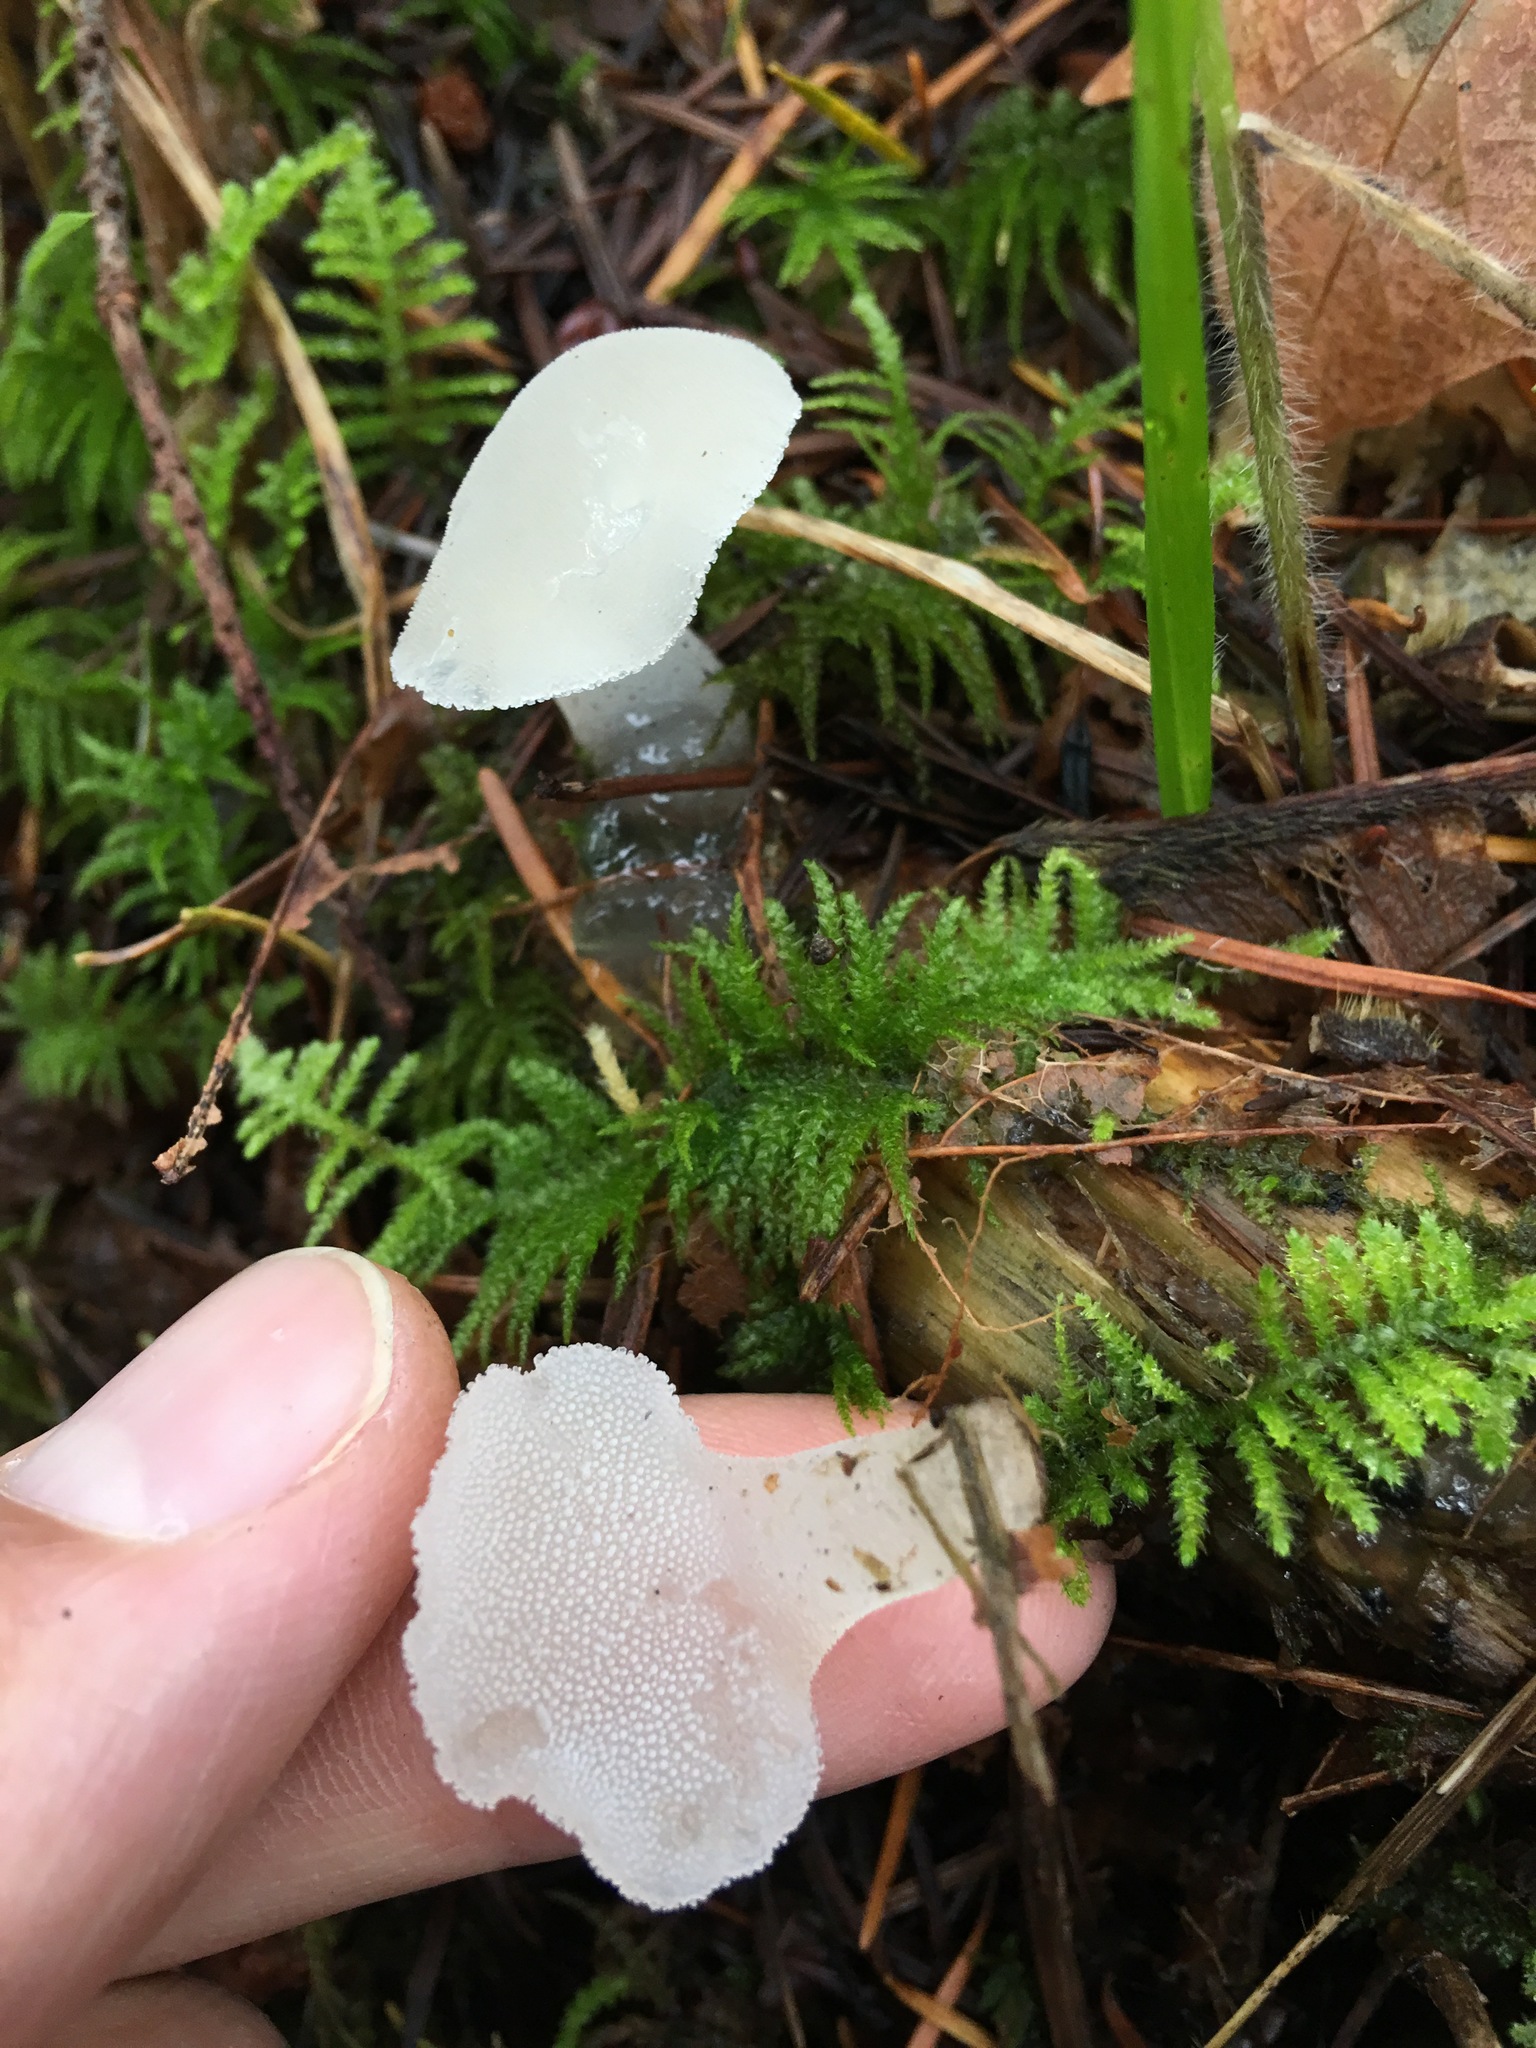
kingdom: Fungi
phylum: Basidiomycota
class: Agaricomycetes
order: Auriculariales
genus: Pseudohydnum
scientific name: Pseudohydnum gelatinosum
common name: Jelly tongue
